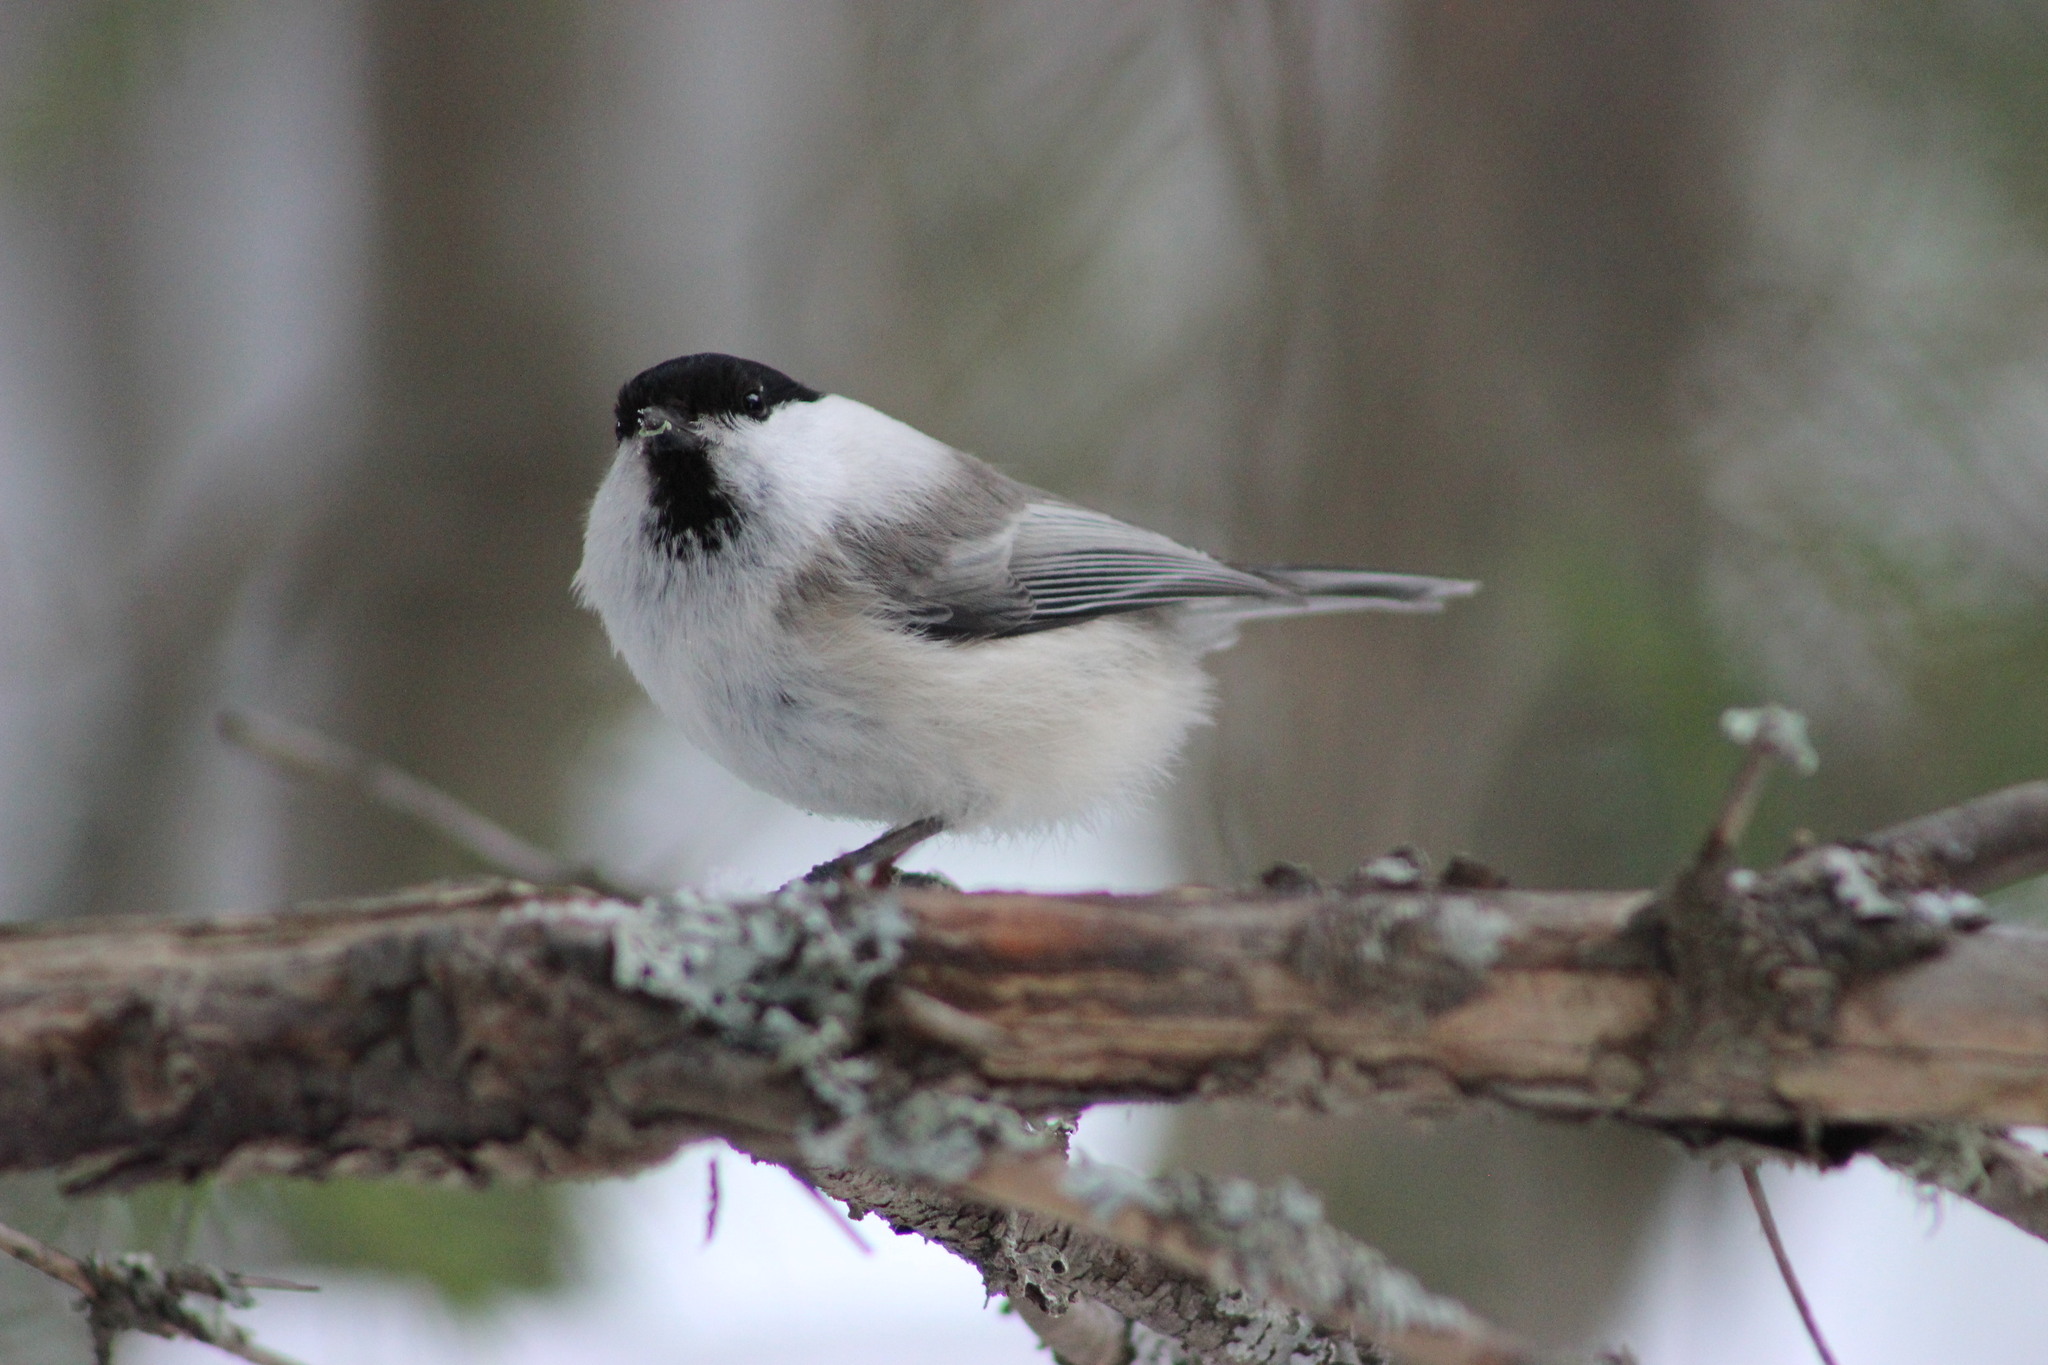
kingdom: Animalia
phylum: Chordata
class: Aves
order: Passeriformes
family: Paridae
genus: Poecile
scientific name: Poecile montanus
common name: Willow tit
